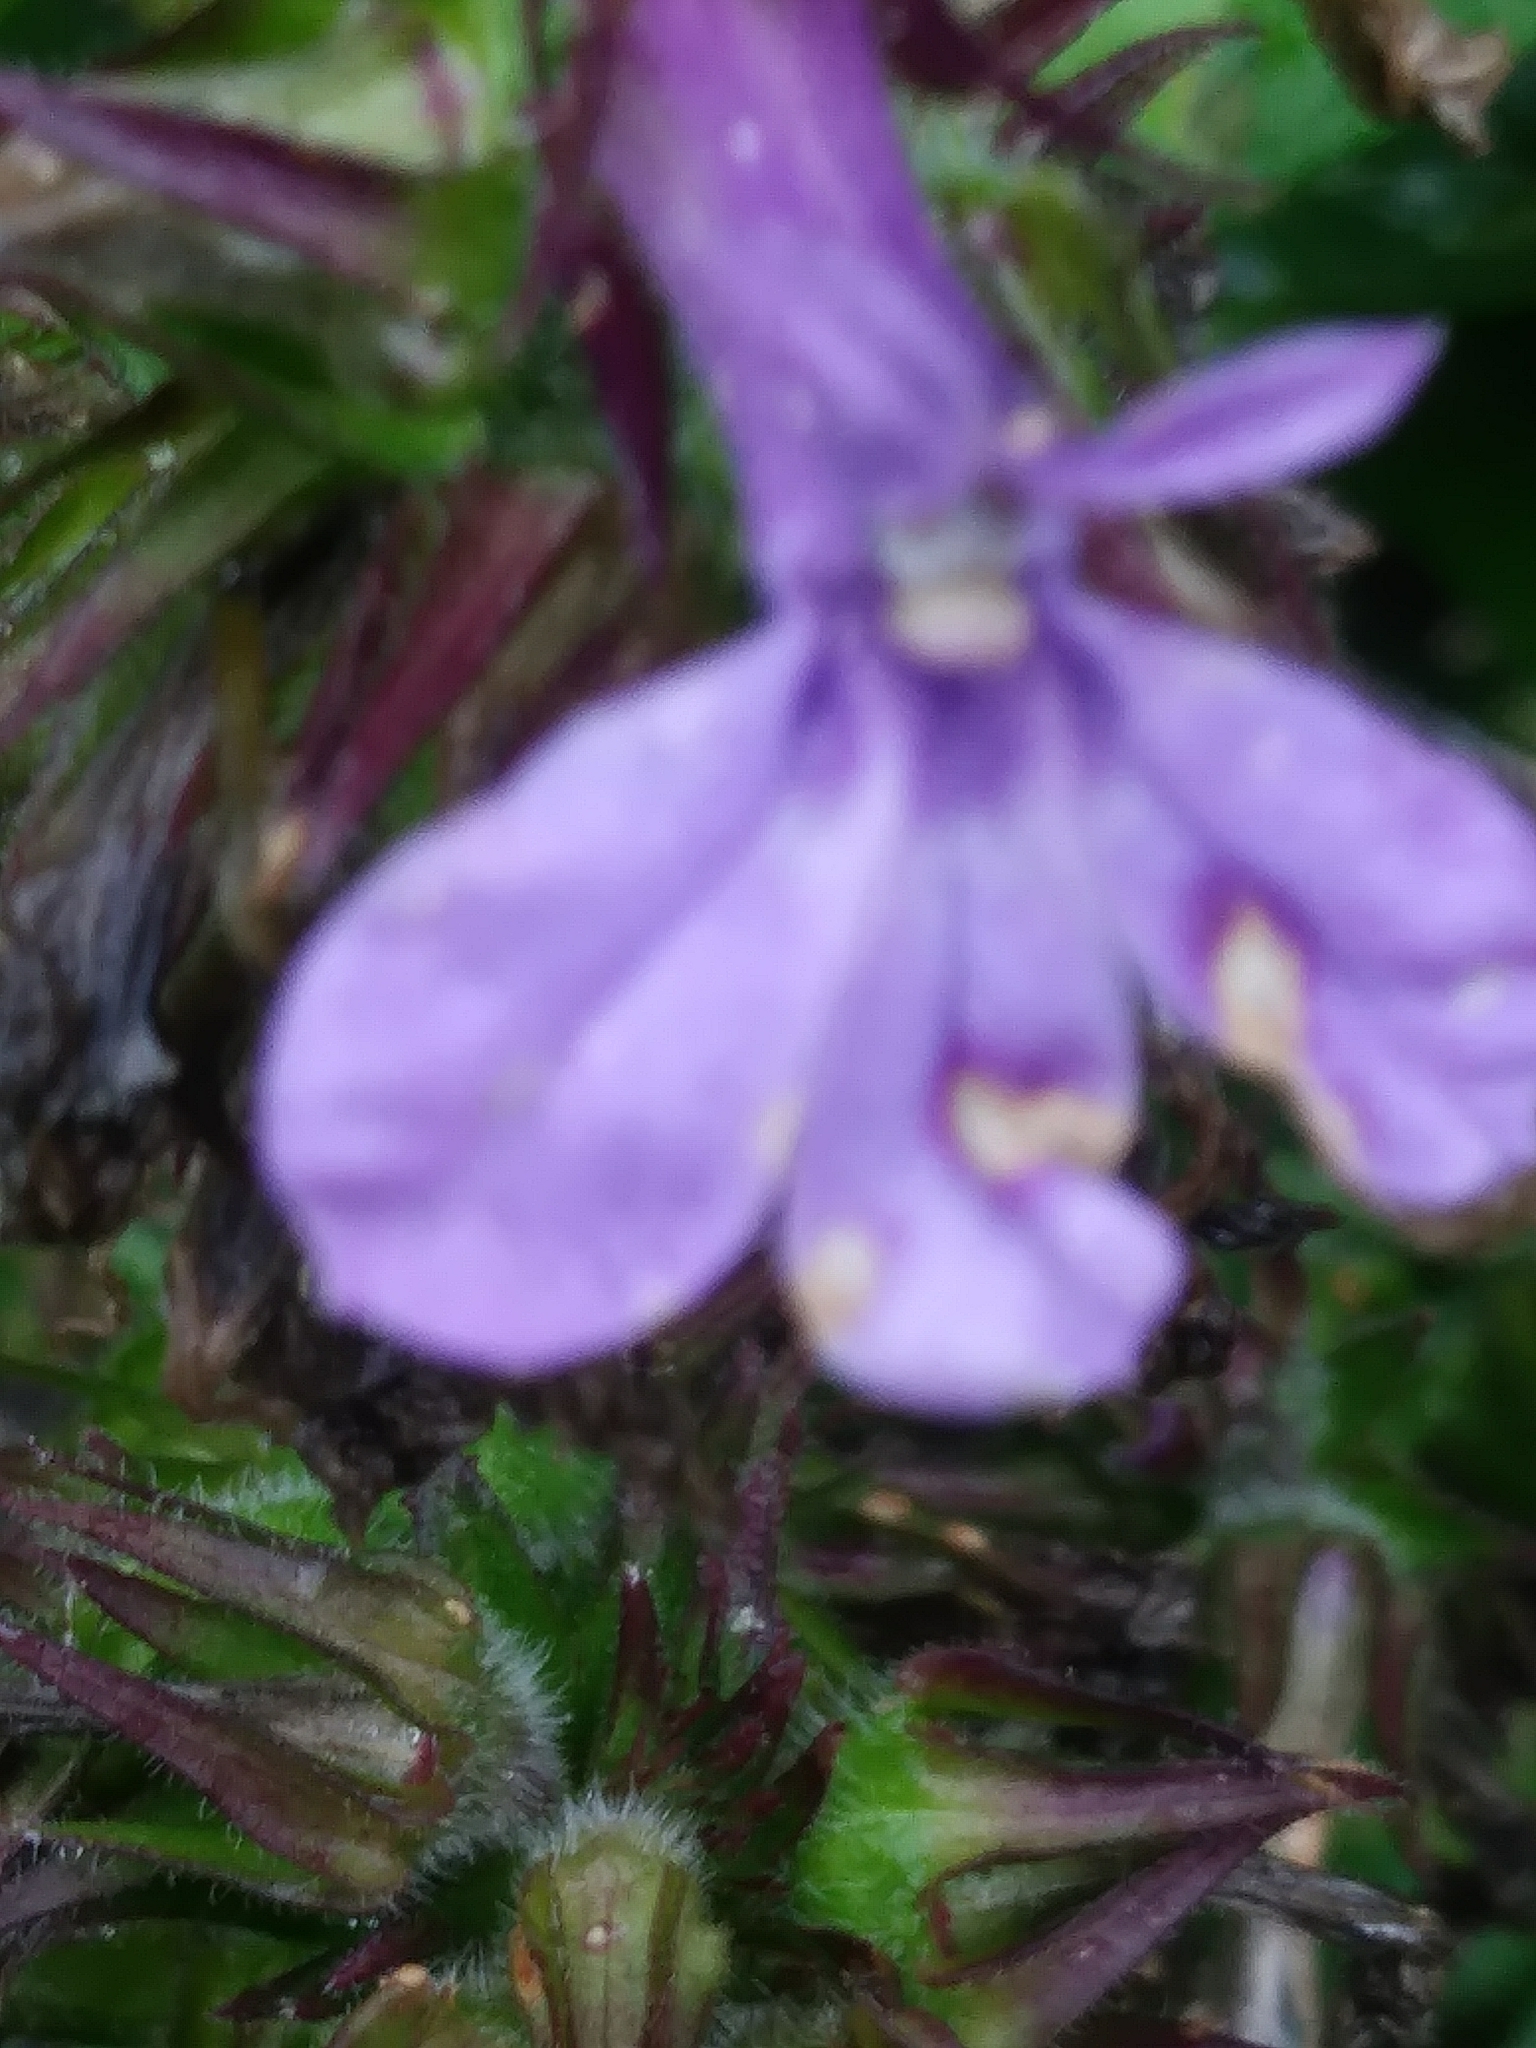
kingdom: Plantae
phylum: Tracheophyta
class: Magnoliopsida
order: Asterales
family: Campanulaceae
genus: Lobelia
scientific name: Lobelia puberula
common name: Purple dewdrop
